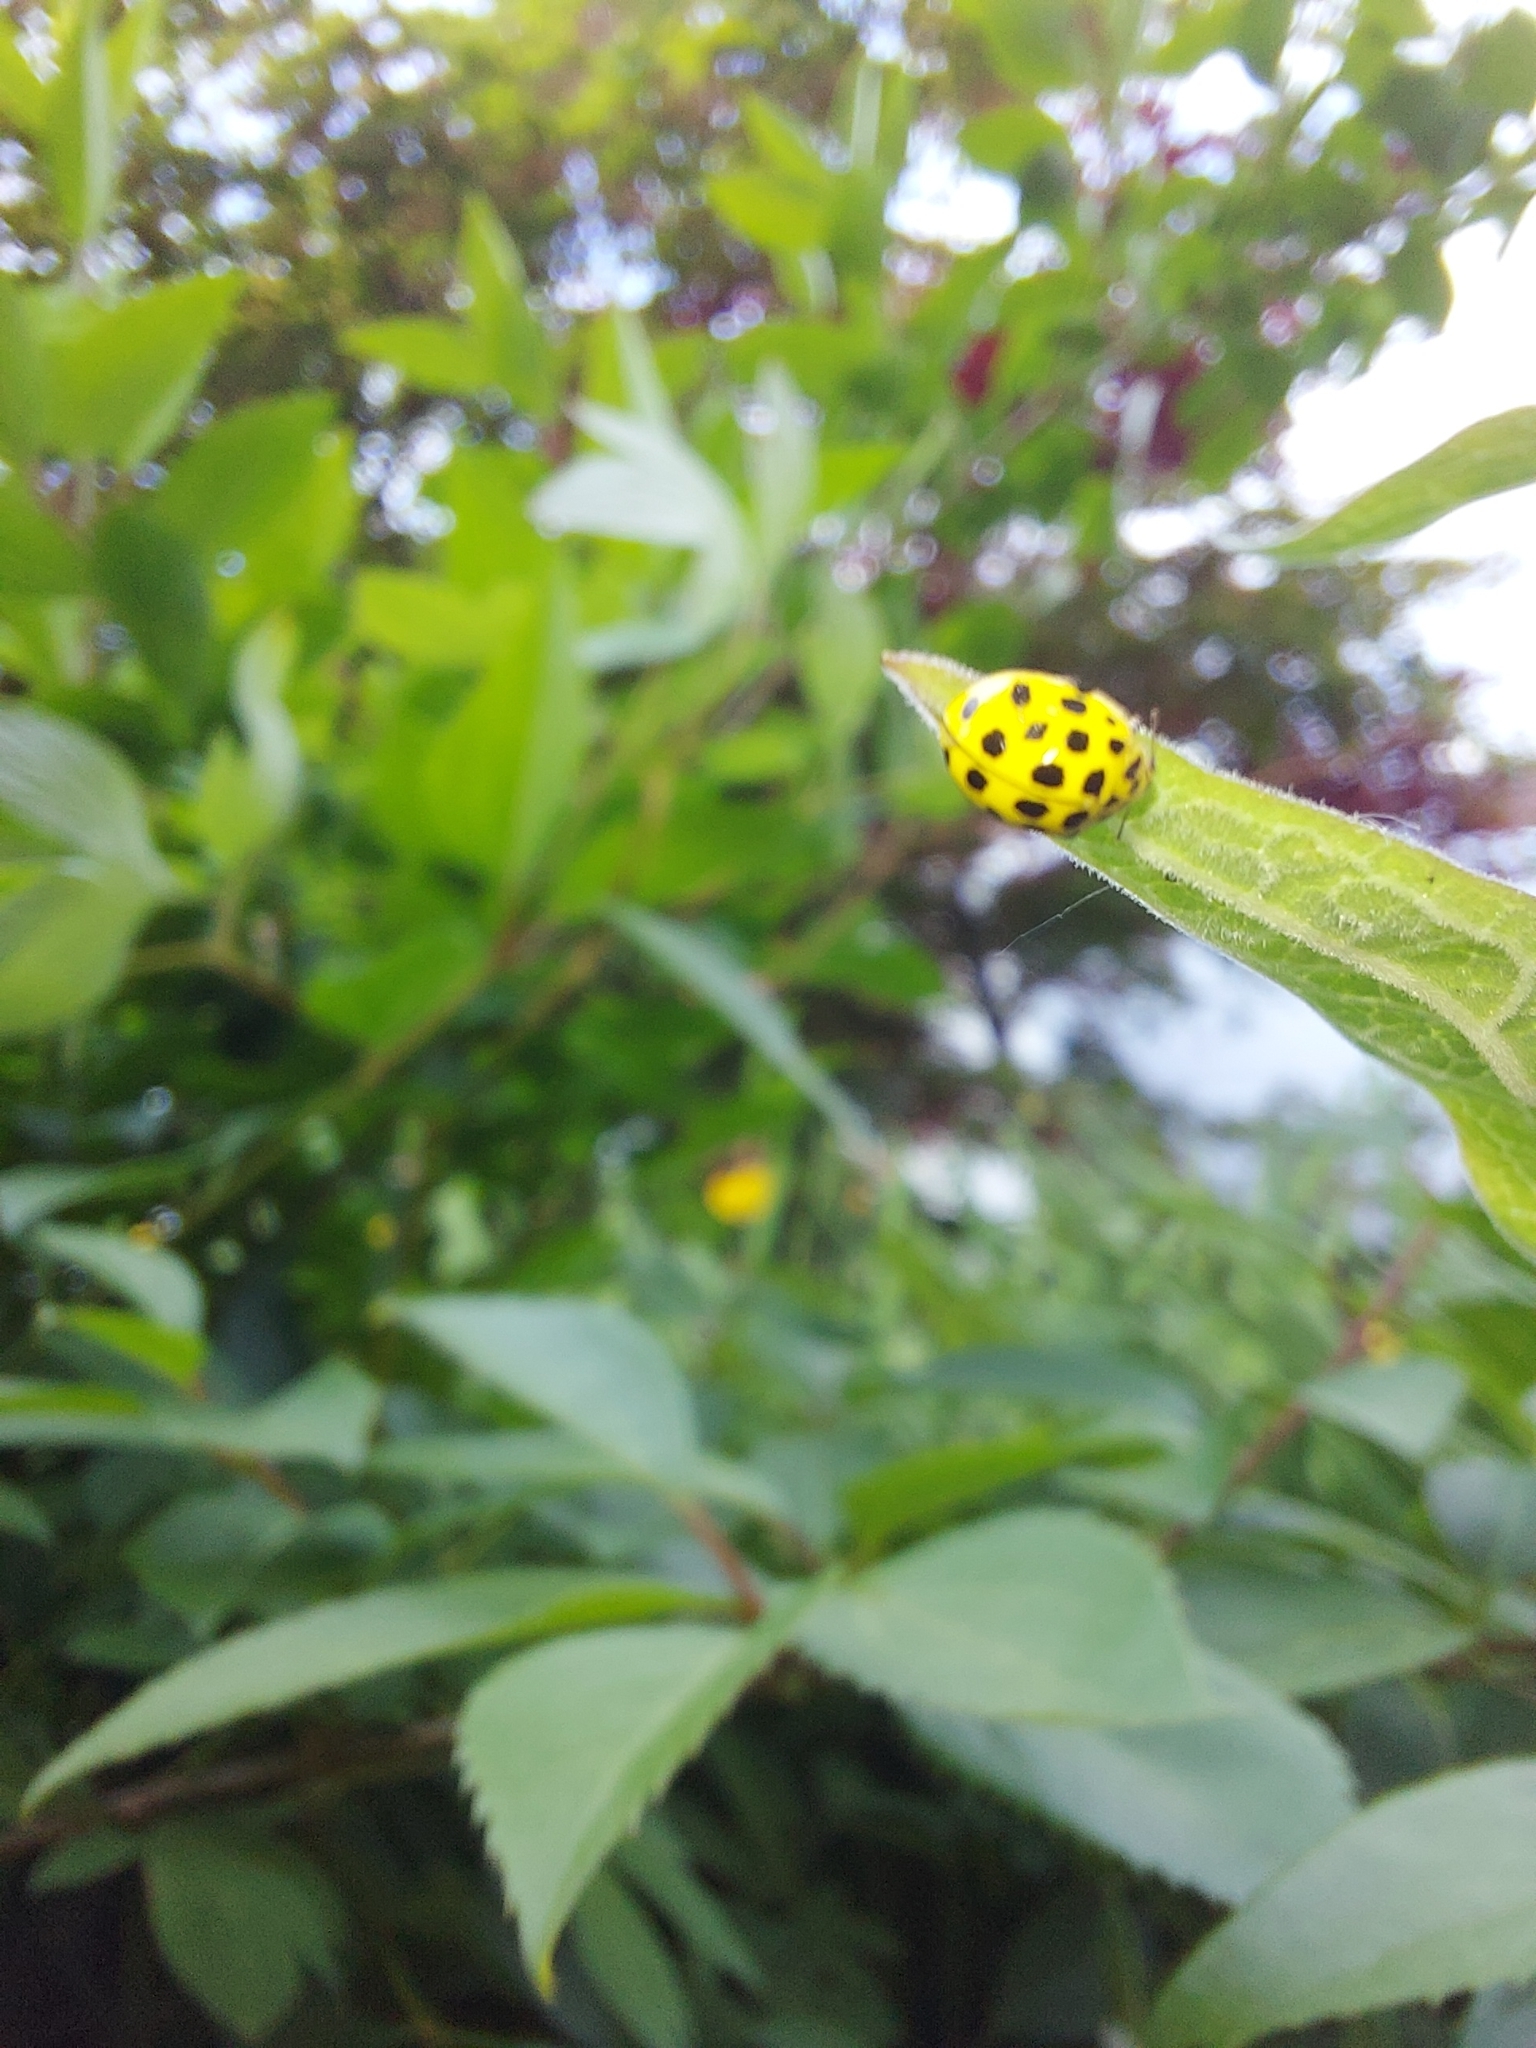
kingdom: Animalia
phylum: Arthropoda
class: Insecta
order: Coleoptera
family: Coccinellidae
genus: Psyllobora
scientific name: Psyllobora vigintiduopunctata
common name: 22-spot ladybird
